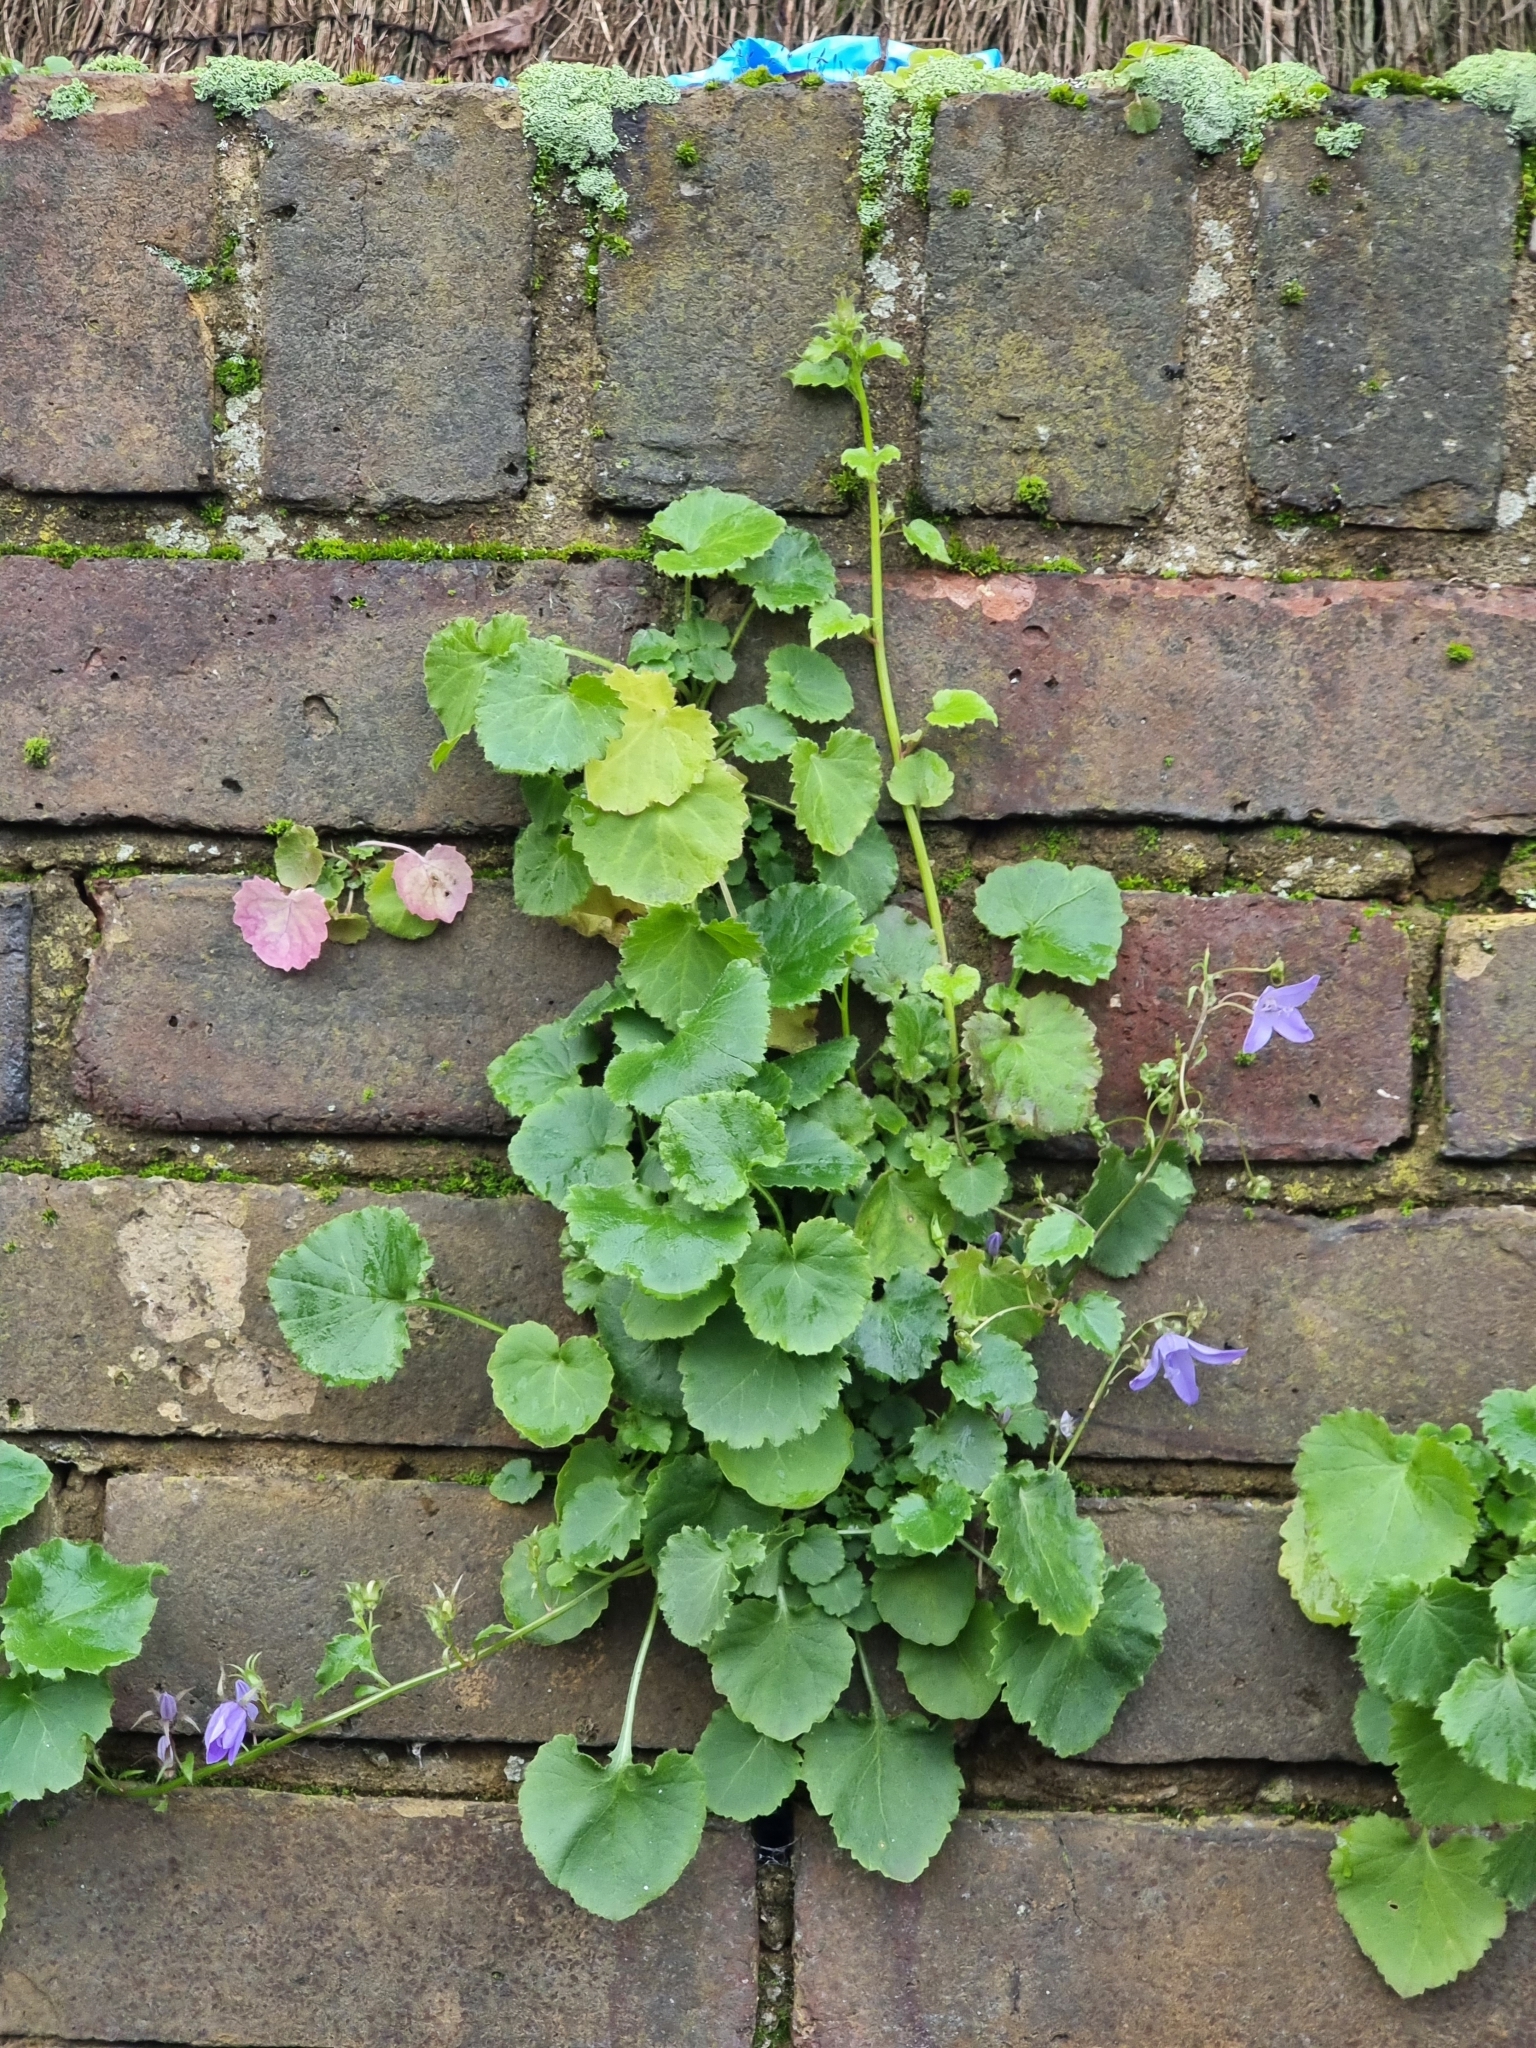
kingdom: Plantae
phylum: Tracheophyta
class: Magnoliopsida
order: Asterales
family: Campanulaceae
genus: Campanula
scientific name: Campanula poscharskyana
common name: Trailing bellflower
